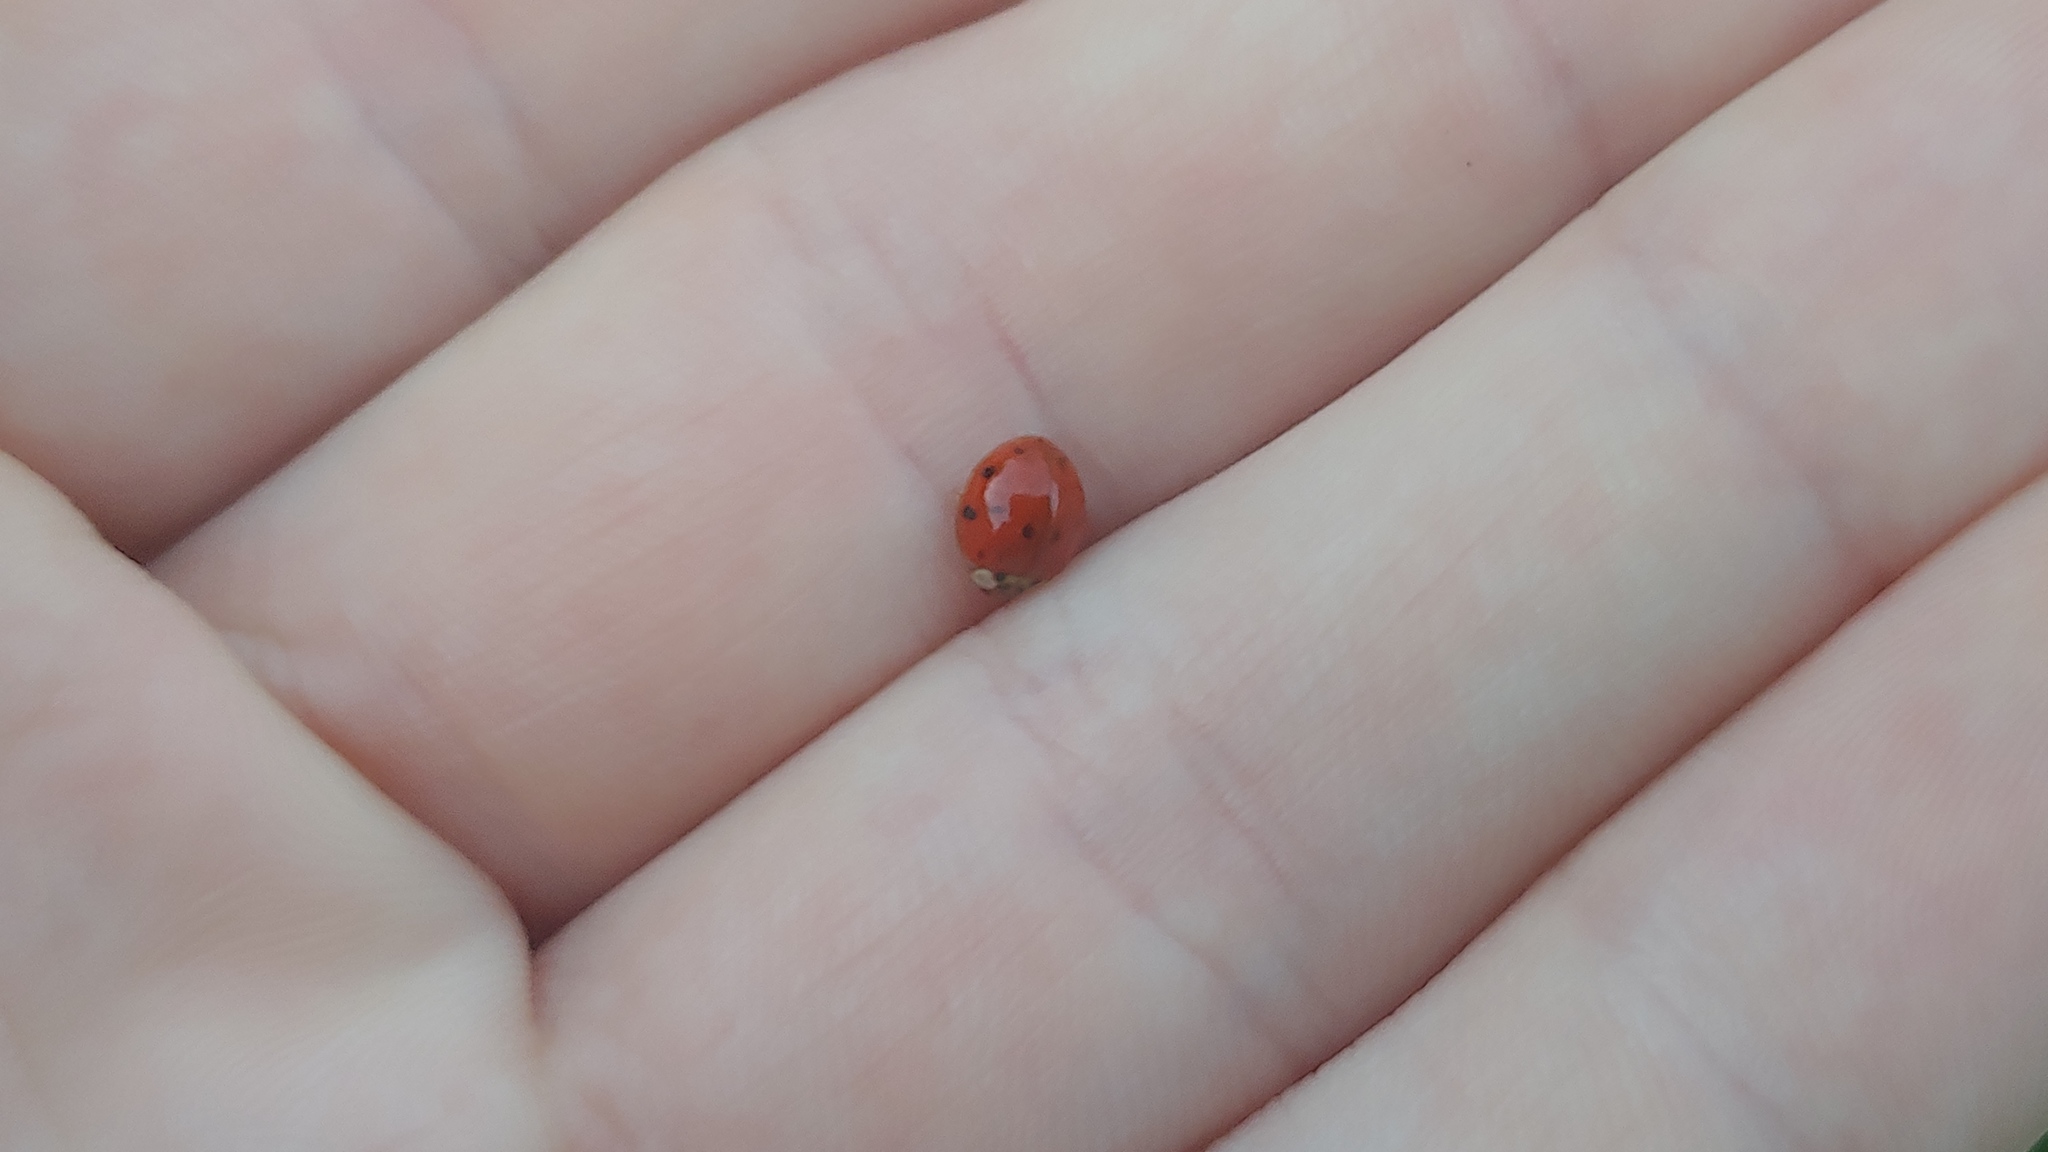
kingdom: Animalia
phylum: Arthropoda
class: Insecta
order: Coleoptera
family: Coccinellidae
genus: Harmonia
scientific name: Harmonia axyridis
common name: Harlequin ladybird
